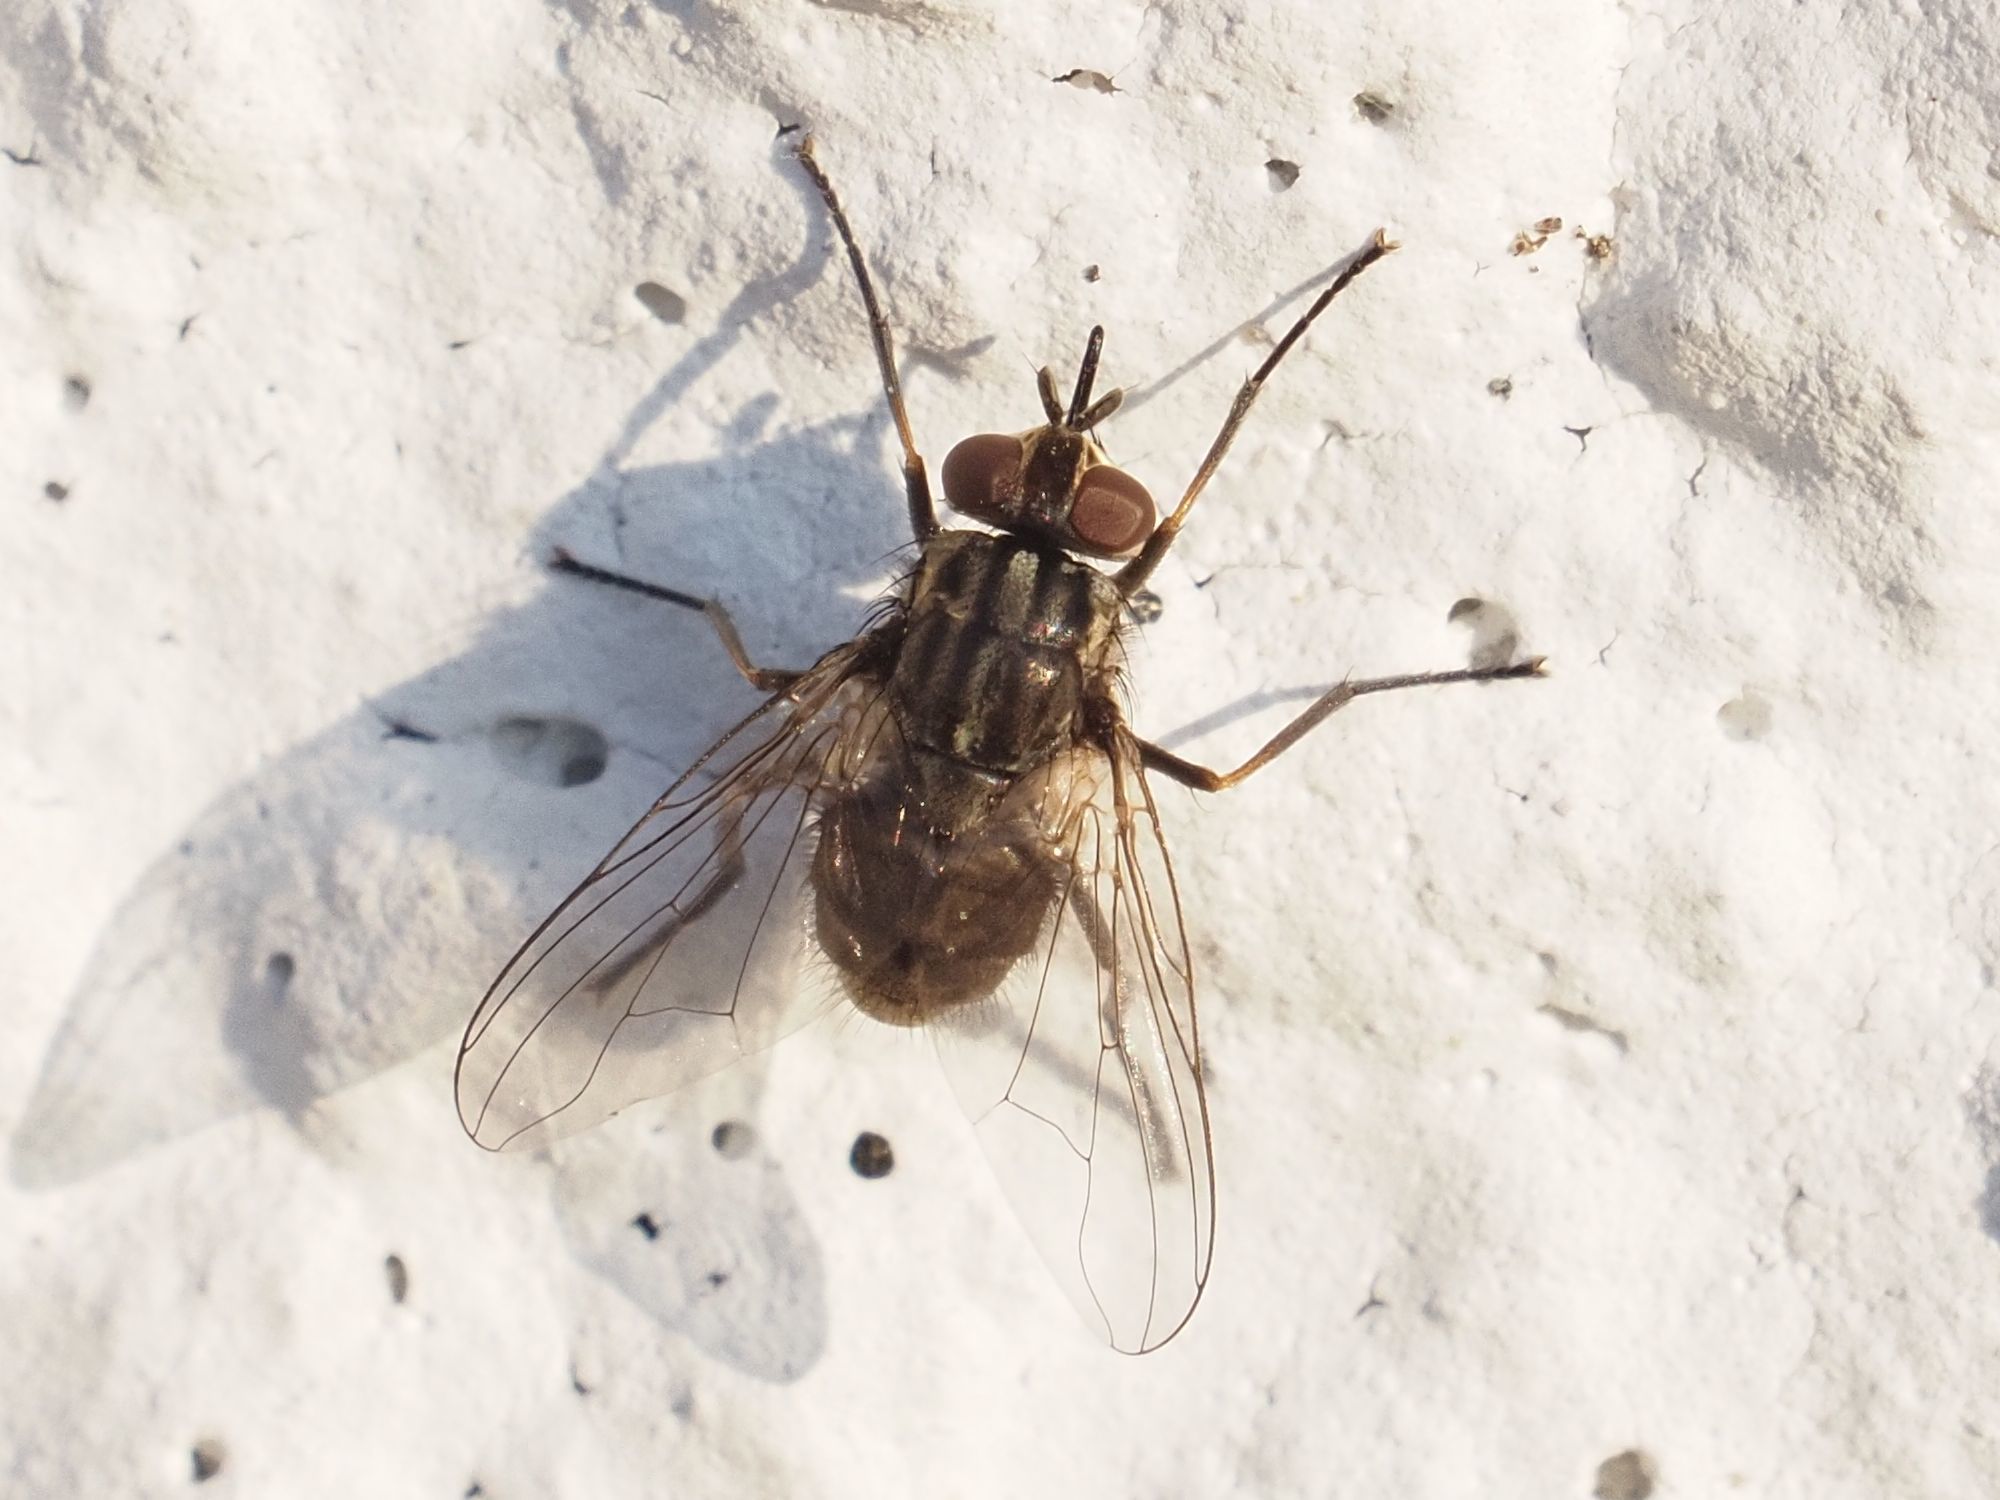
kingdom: Animalia
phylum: Arthropoda
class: Insecta
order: Diptera
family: Muscidae
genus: Stomoxys
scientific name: Stomoxys calcitrans
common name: Stable fly
